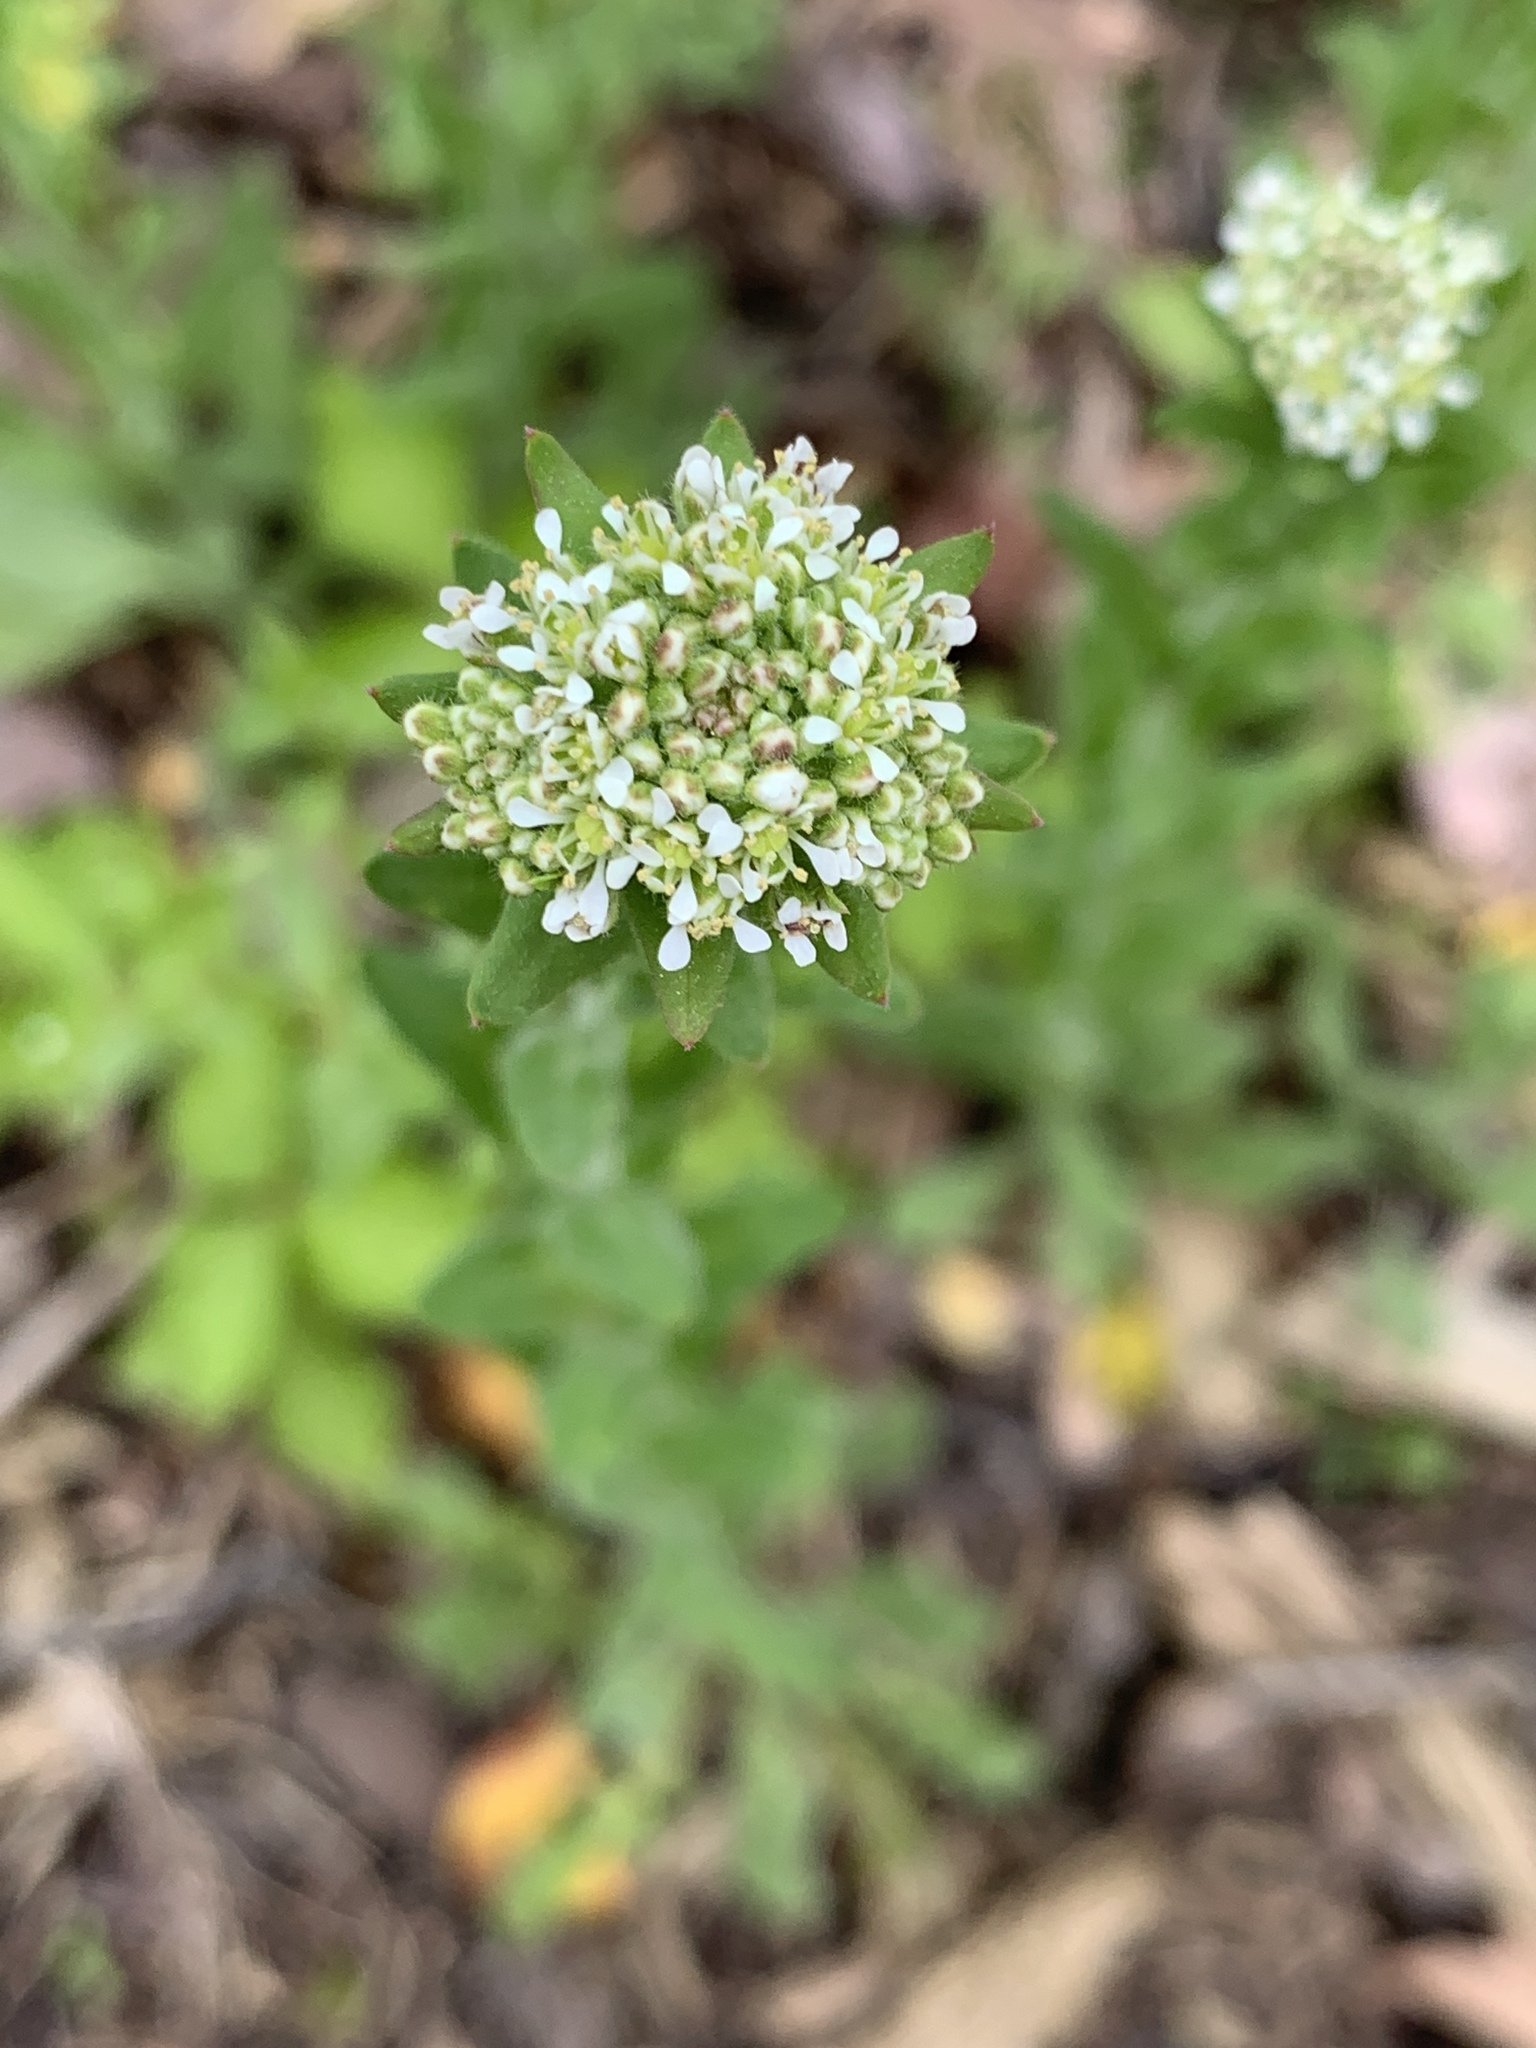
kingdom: Plantae
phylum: Tracheophyta
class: Magnoliopsida
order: Brassicales
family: Brassicaceae
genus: Thlaspi
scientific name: Thlaspi arvense
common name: Field pennycress
